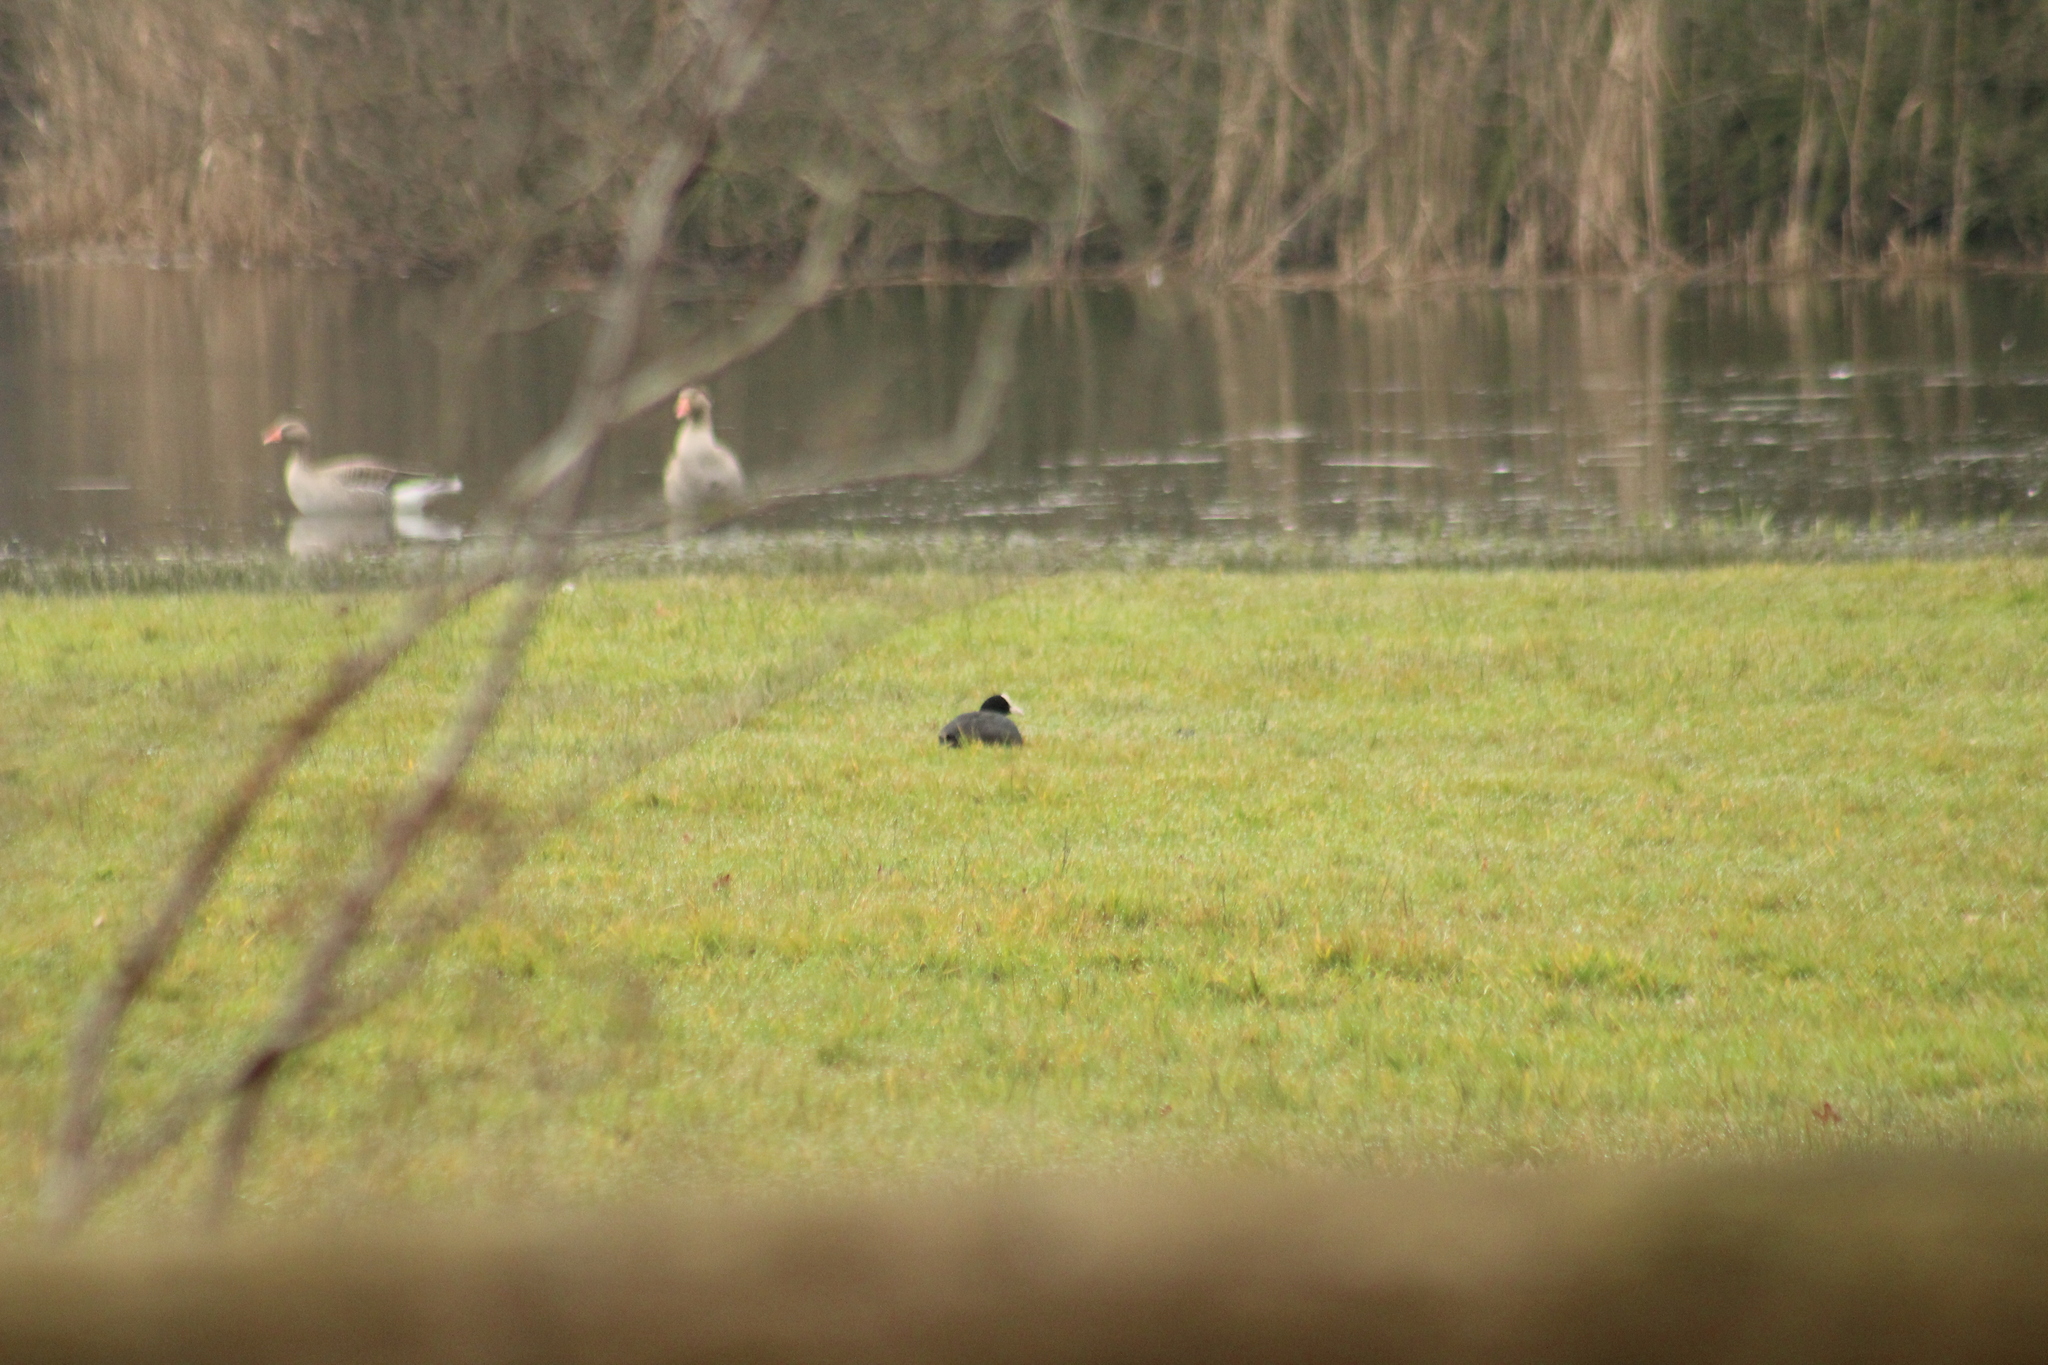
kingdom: Animalia
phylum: Chordata
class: Aves
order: Gruiformes
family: Rallidae
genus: Fulica
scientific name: Fulica atra
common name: Eurasian coot
